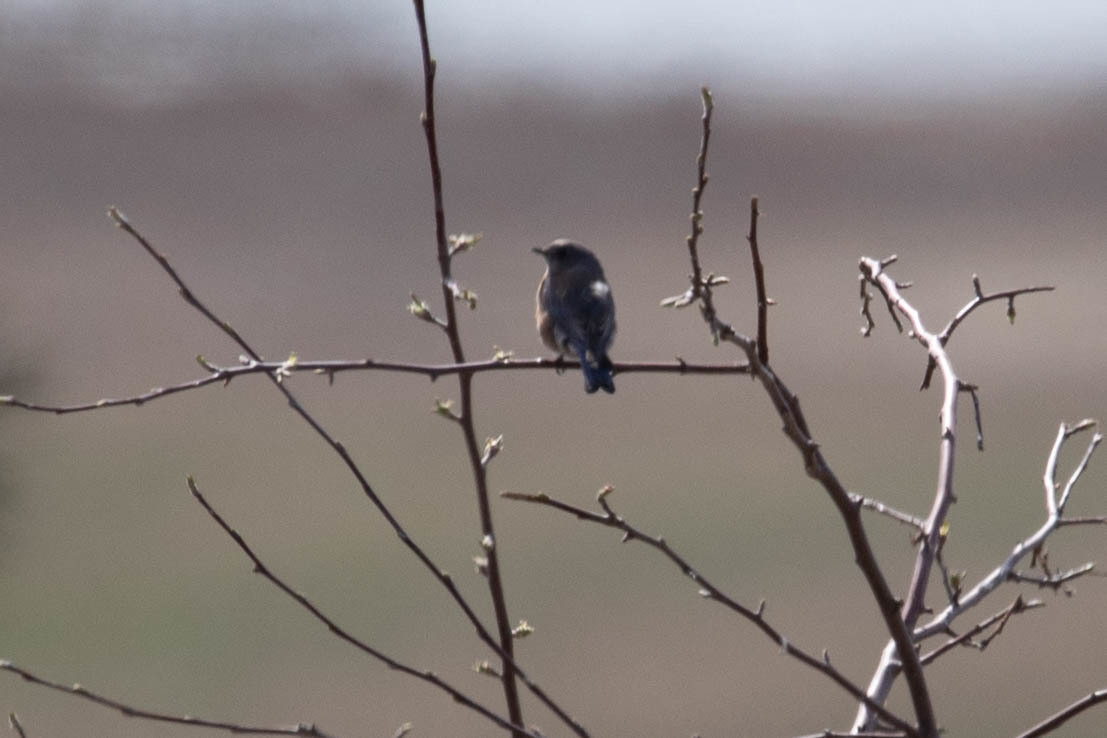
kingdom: Animalia
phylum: Chordata
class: Aves
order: Passeriformes
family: Turdidae
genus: Sialia
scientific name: Sialia mexicana
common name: Western bluebird
